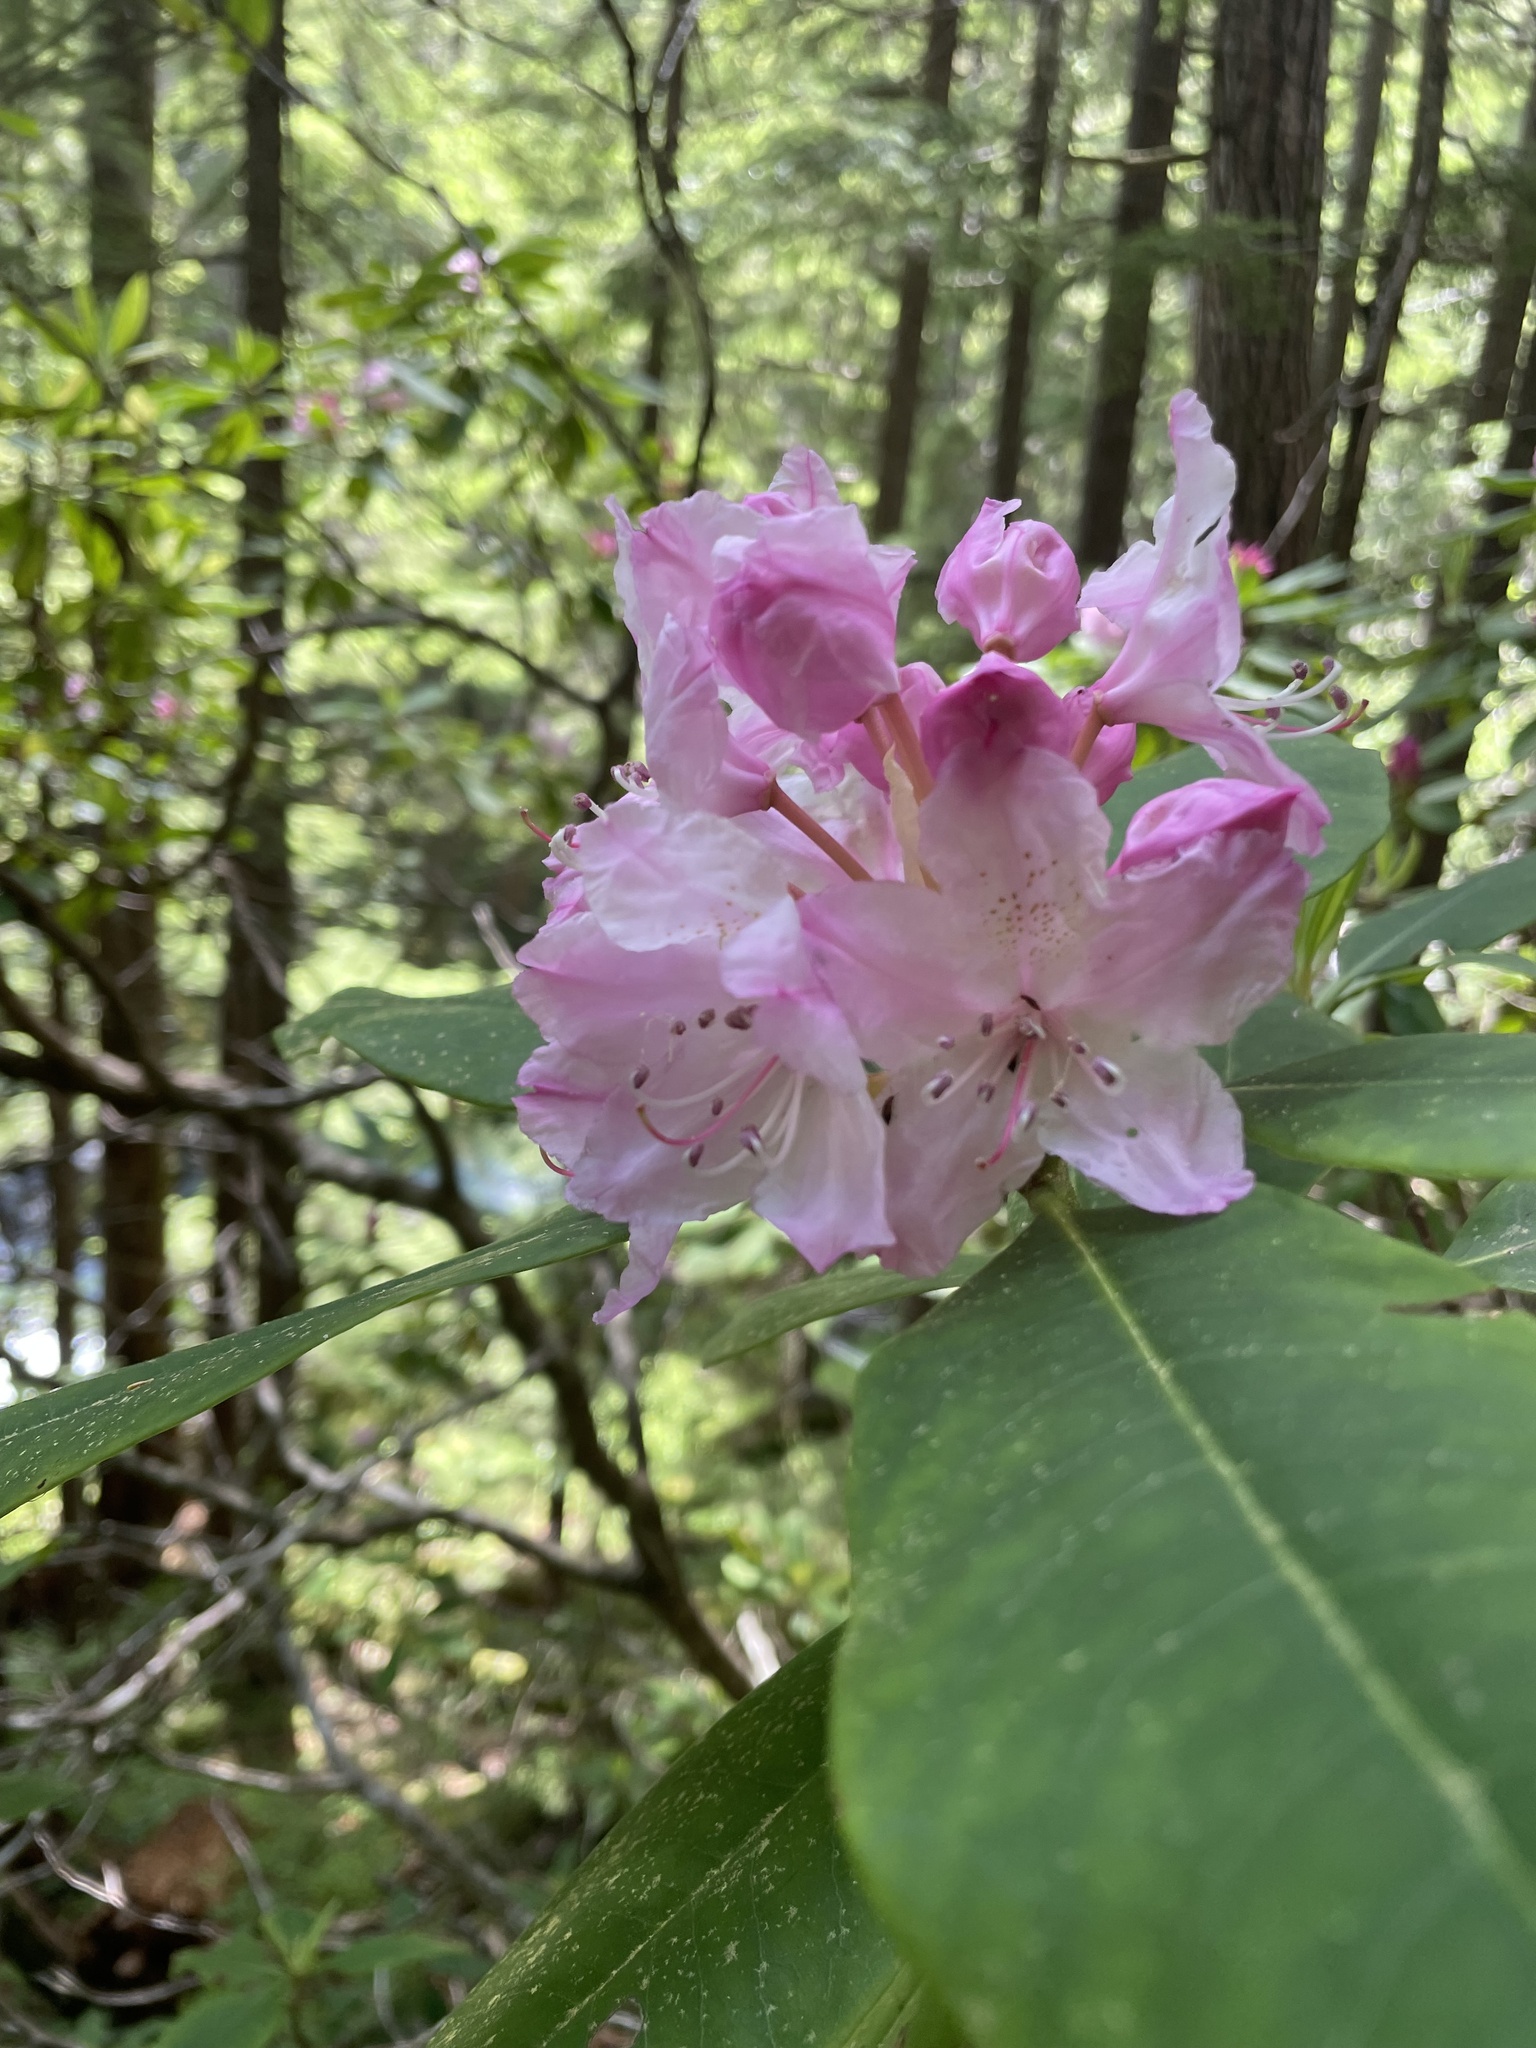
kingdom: Plantae
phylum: Tracheophyta
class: Magnoliopsida
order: Ericales
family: Ericaceae
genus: Rhododendron
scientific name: Rhododendron macrophyllum
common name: California rose bay
